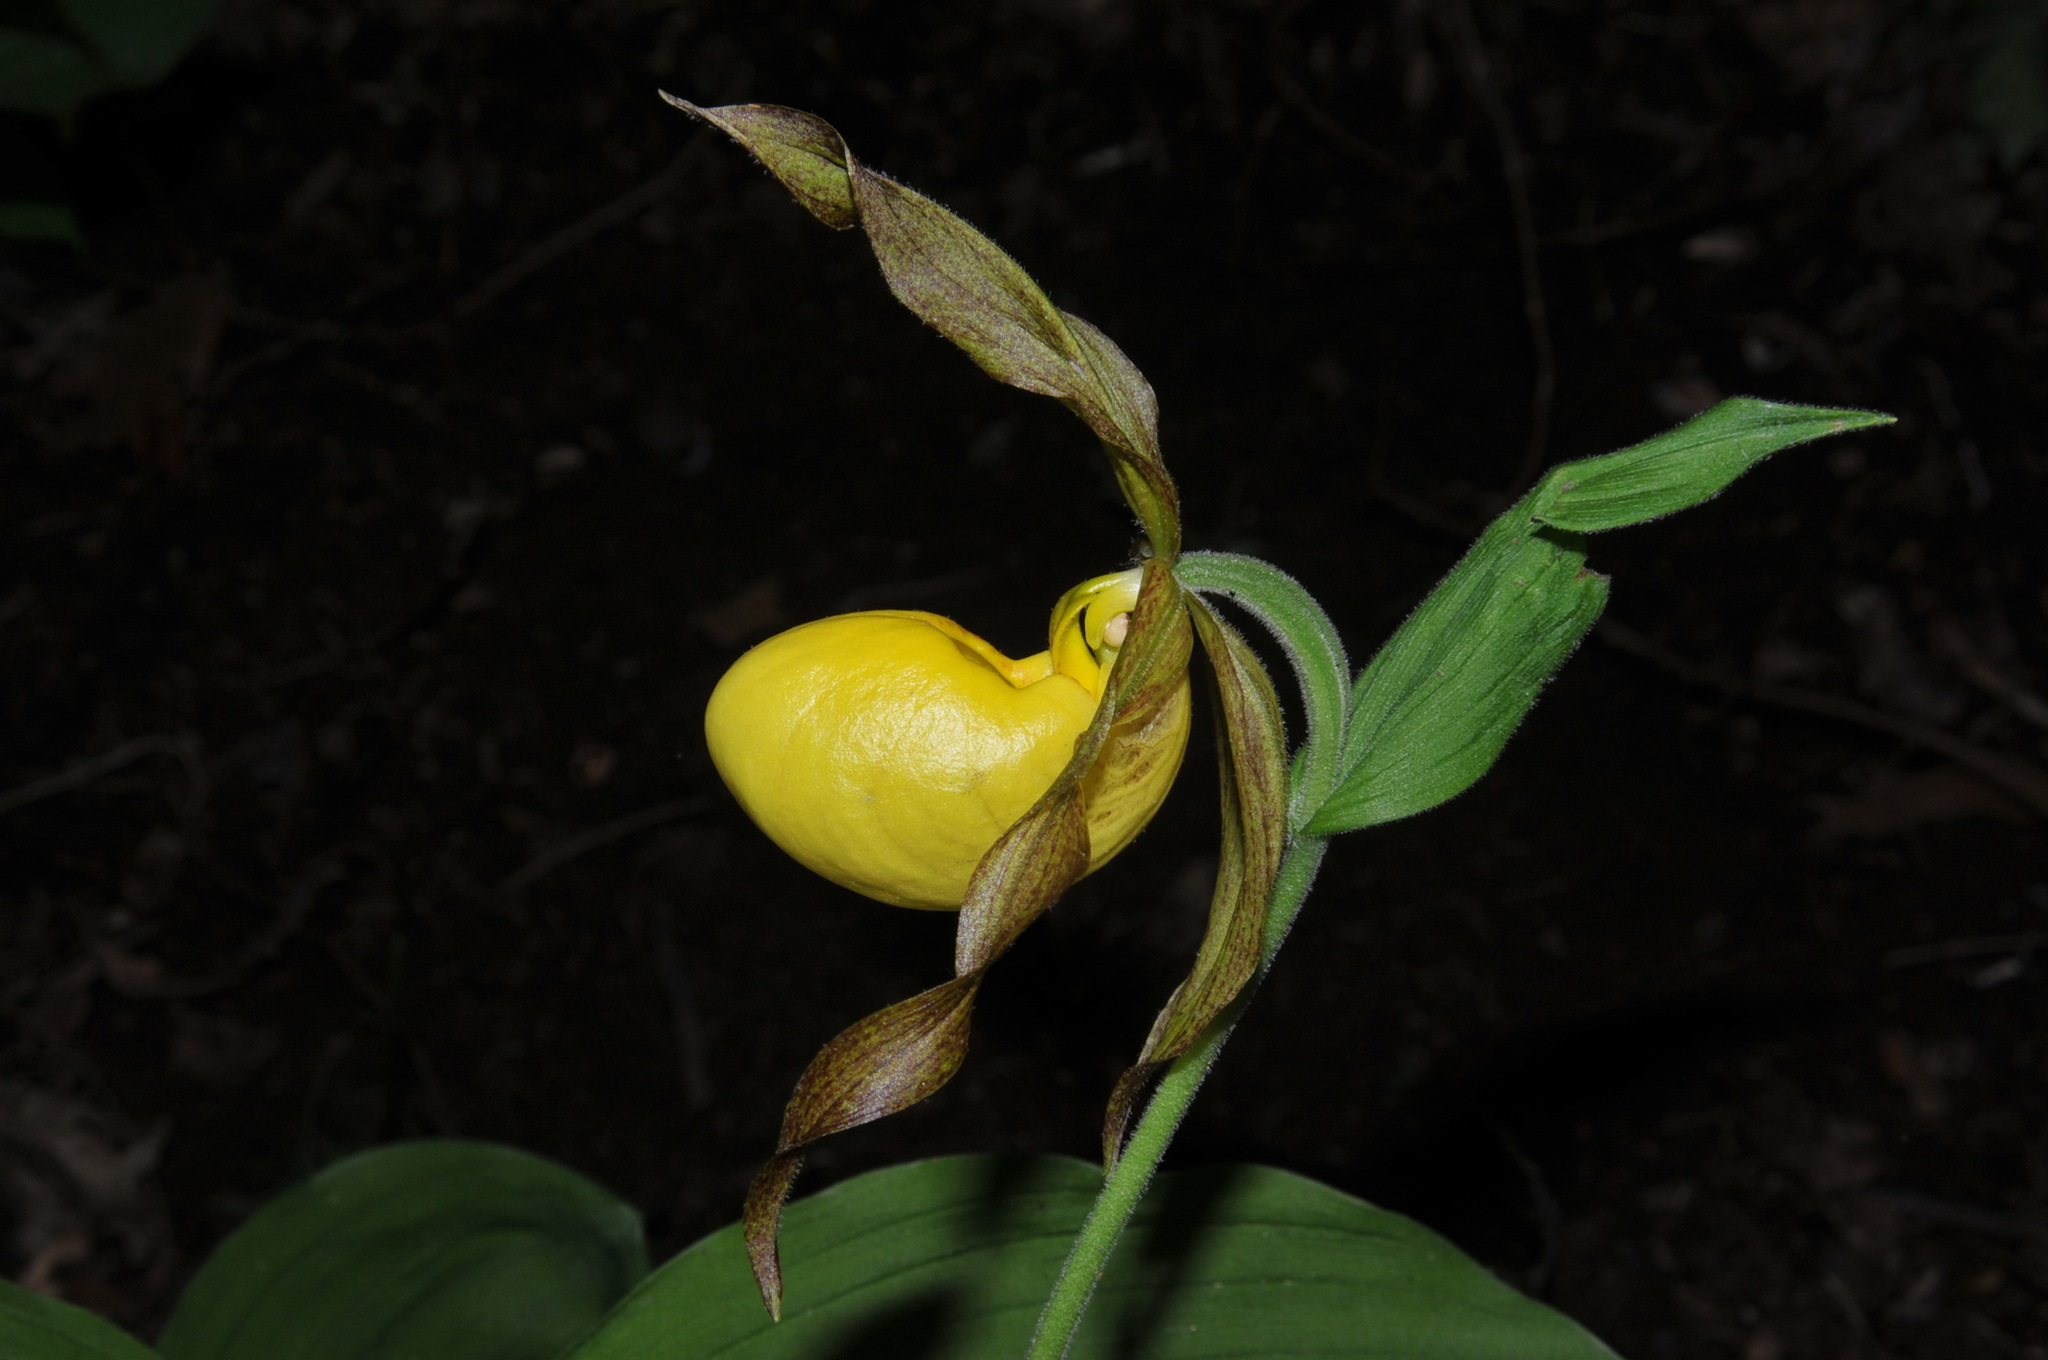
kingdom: Plantae
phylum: Tracheophyta
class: Liliopsida
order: Asparagales
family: Orchidaceae
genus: Cypripedium
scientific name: Cypripedium parviflorum
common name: American yellow lady's-slipper
